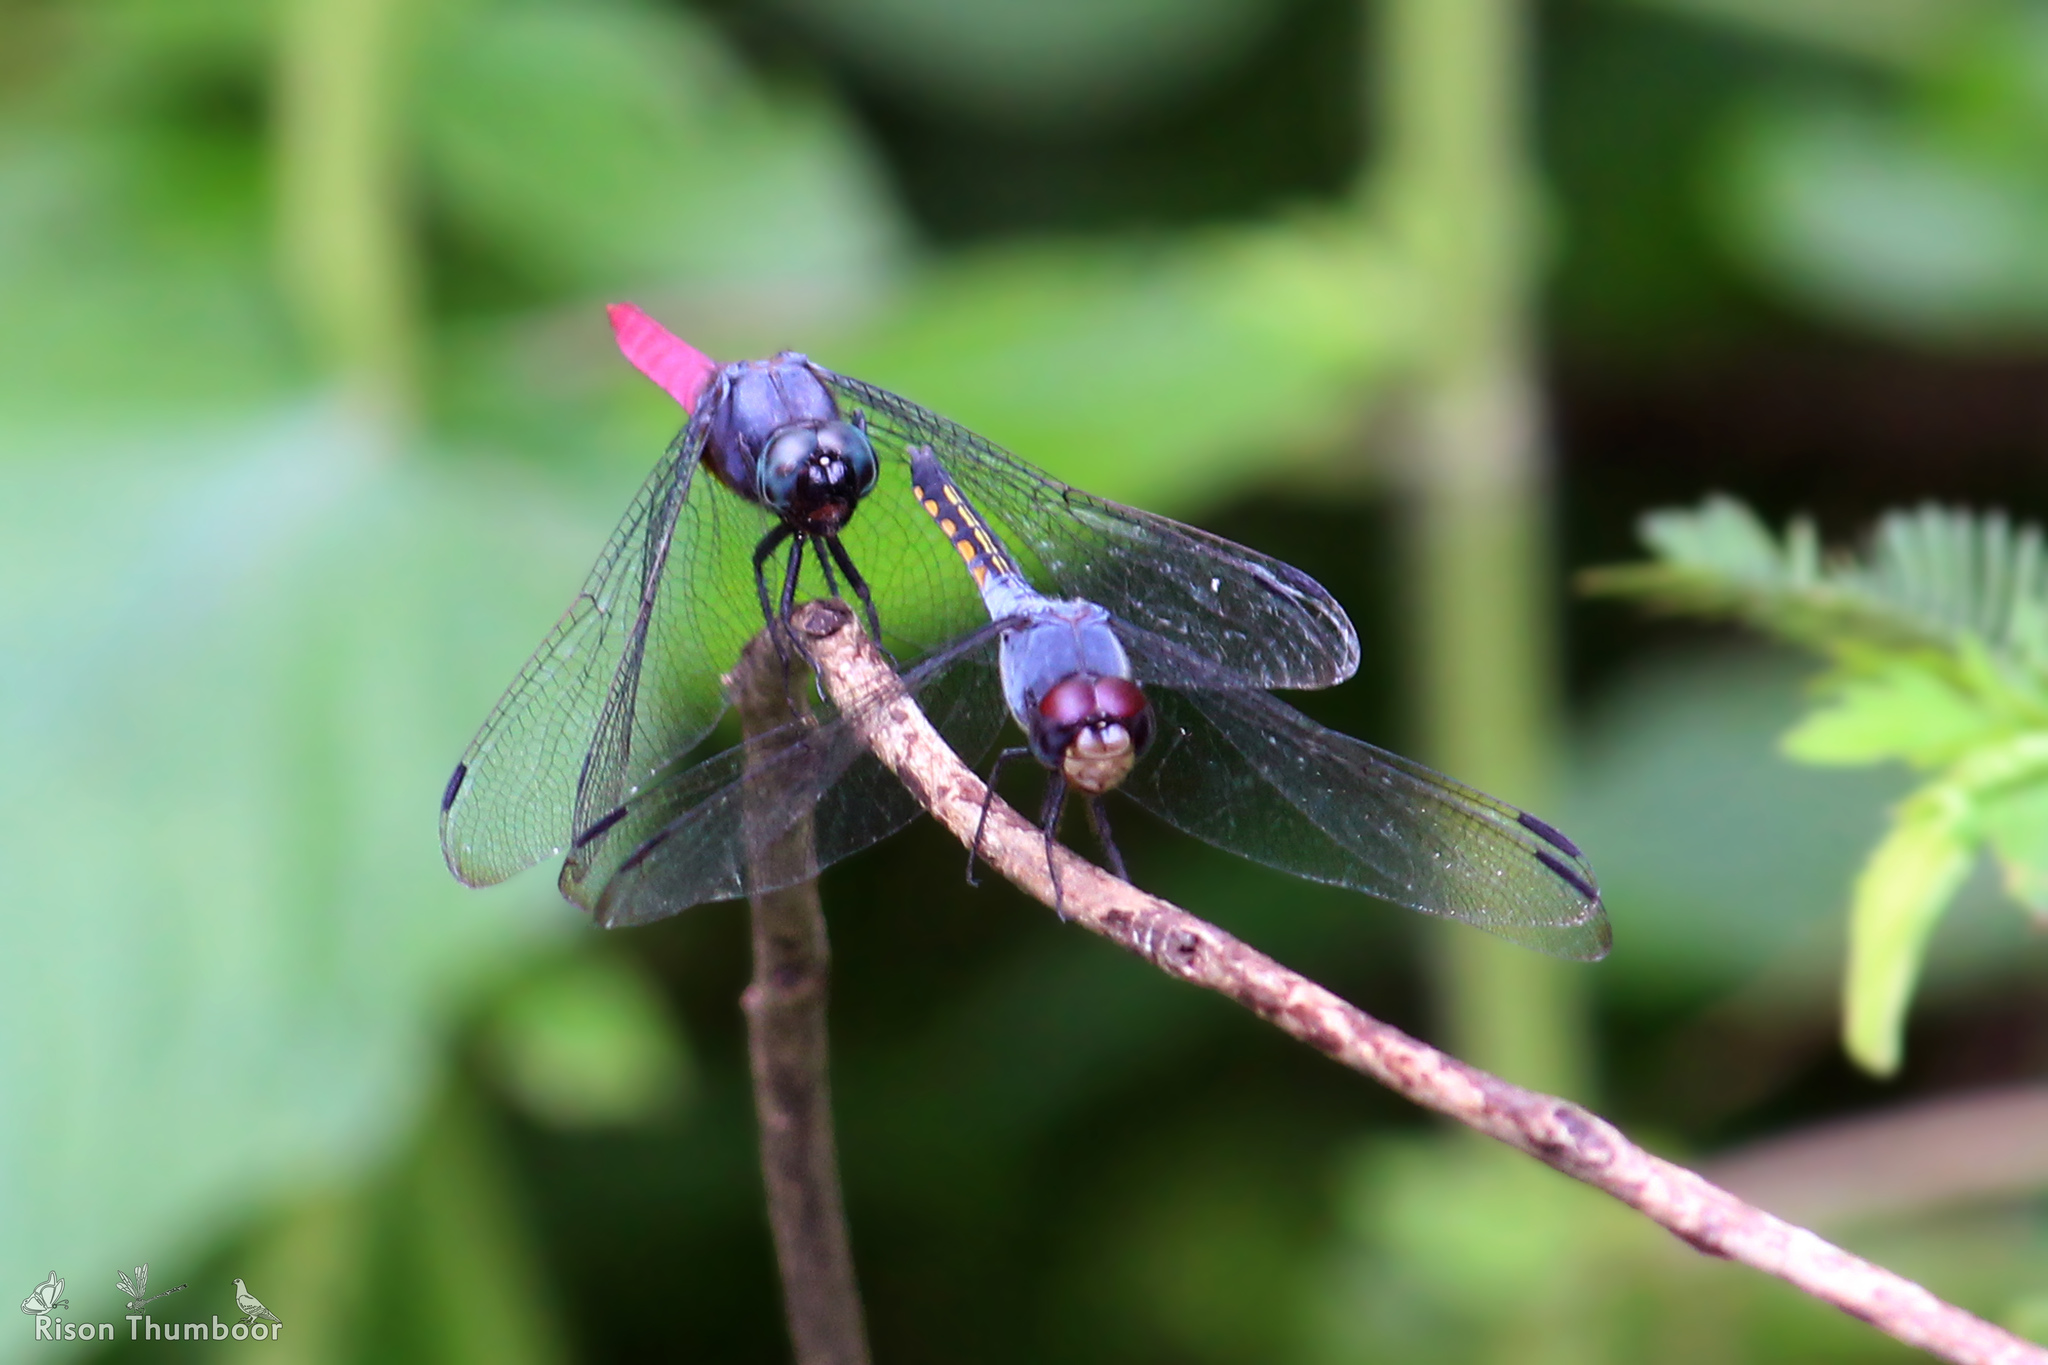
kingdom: Animalia
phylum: Arthropoda
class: Insecta
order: Odonata
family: Libellulidae
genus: Potamarcha
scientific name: Potamarcha congener
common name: Blue chaser
